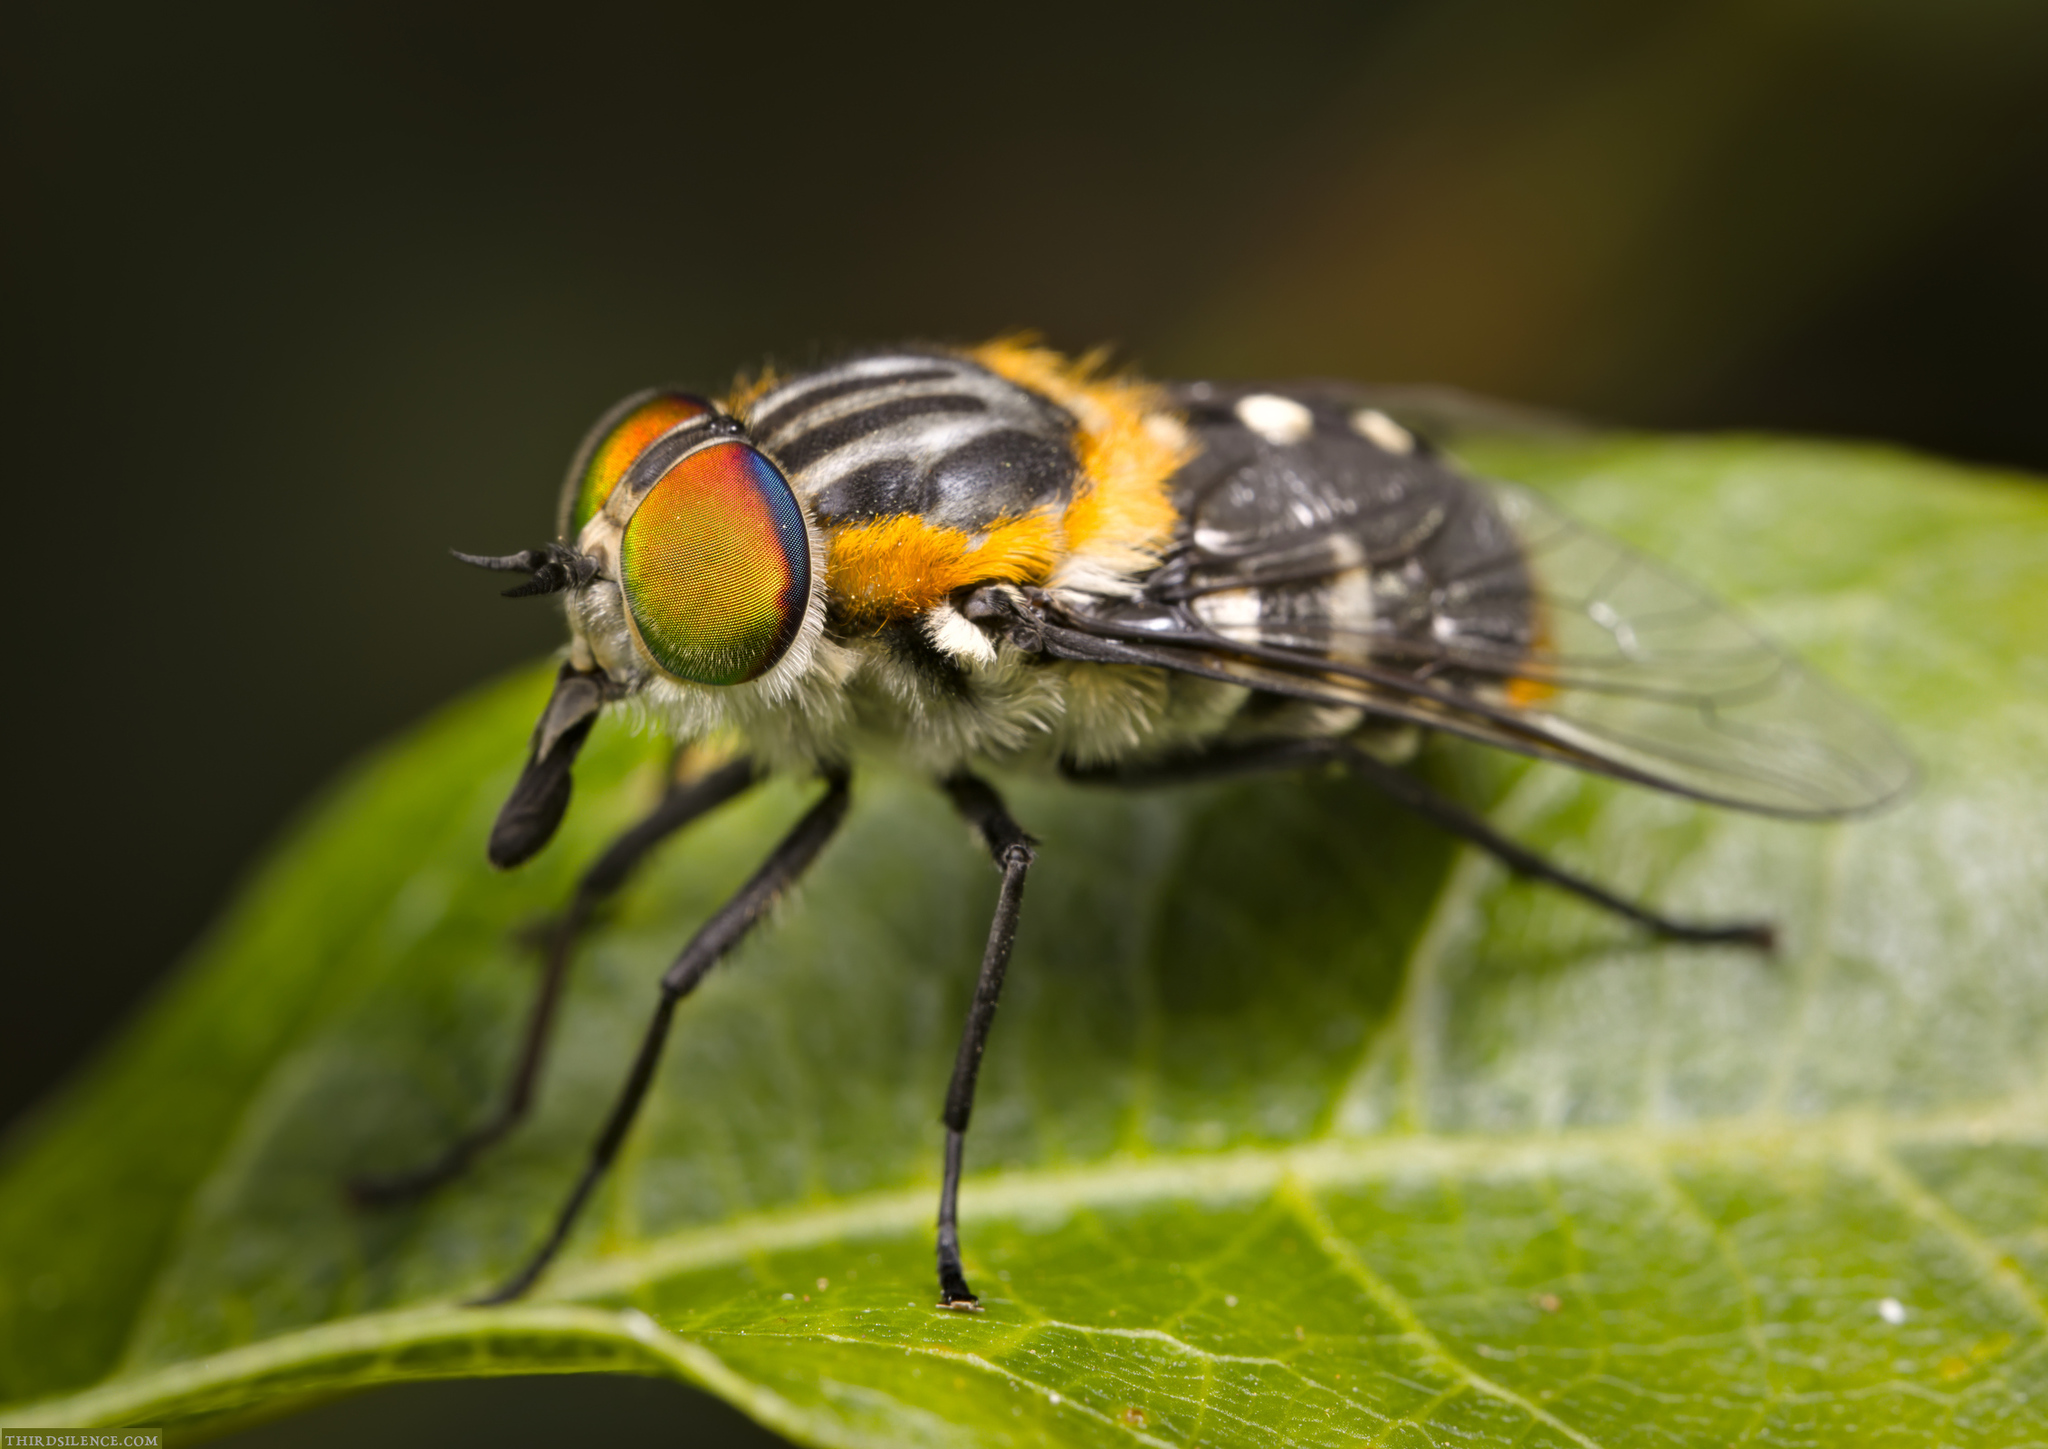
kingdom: Animalia
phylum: Arthropoda
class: Insecta
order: Diptera
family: Tabanidae
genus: Scaptia
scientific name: Scaptia auriflua
